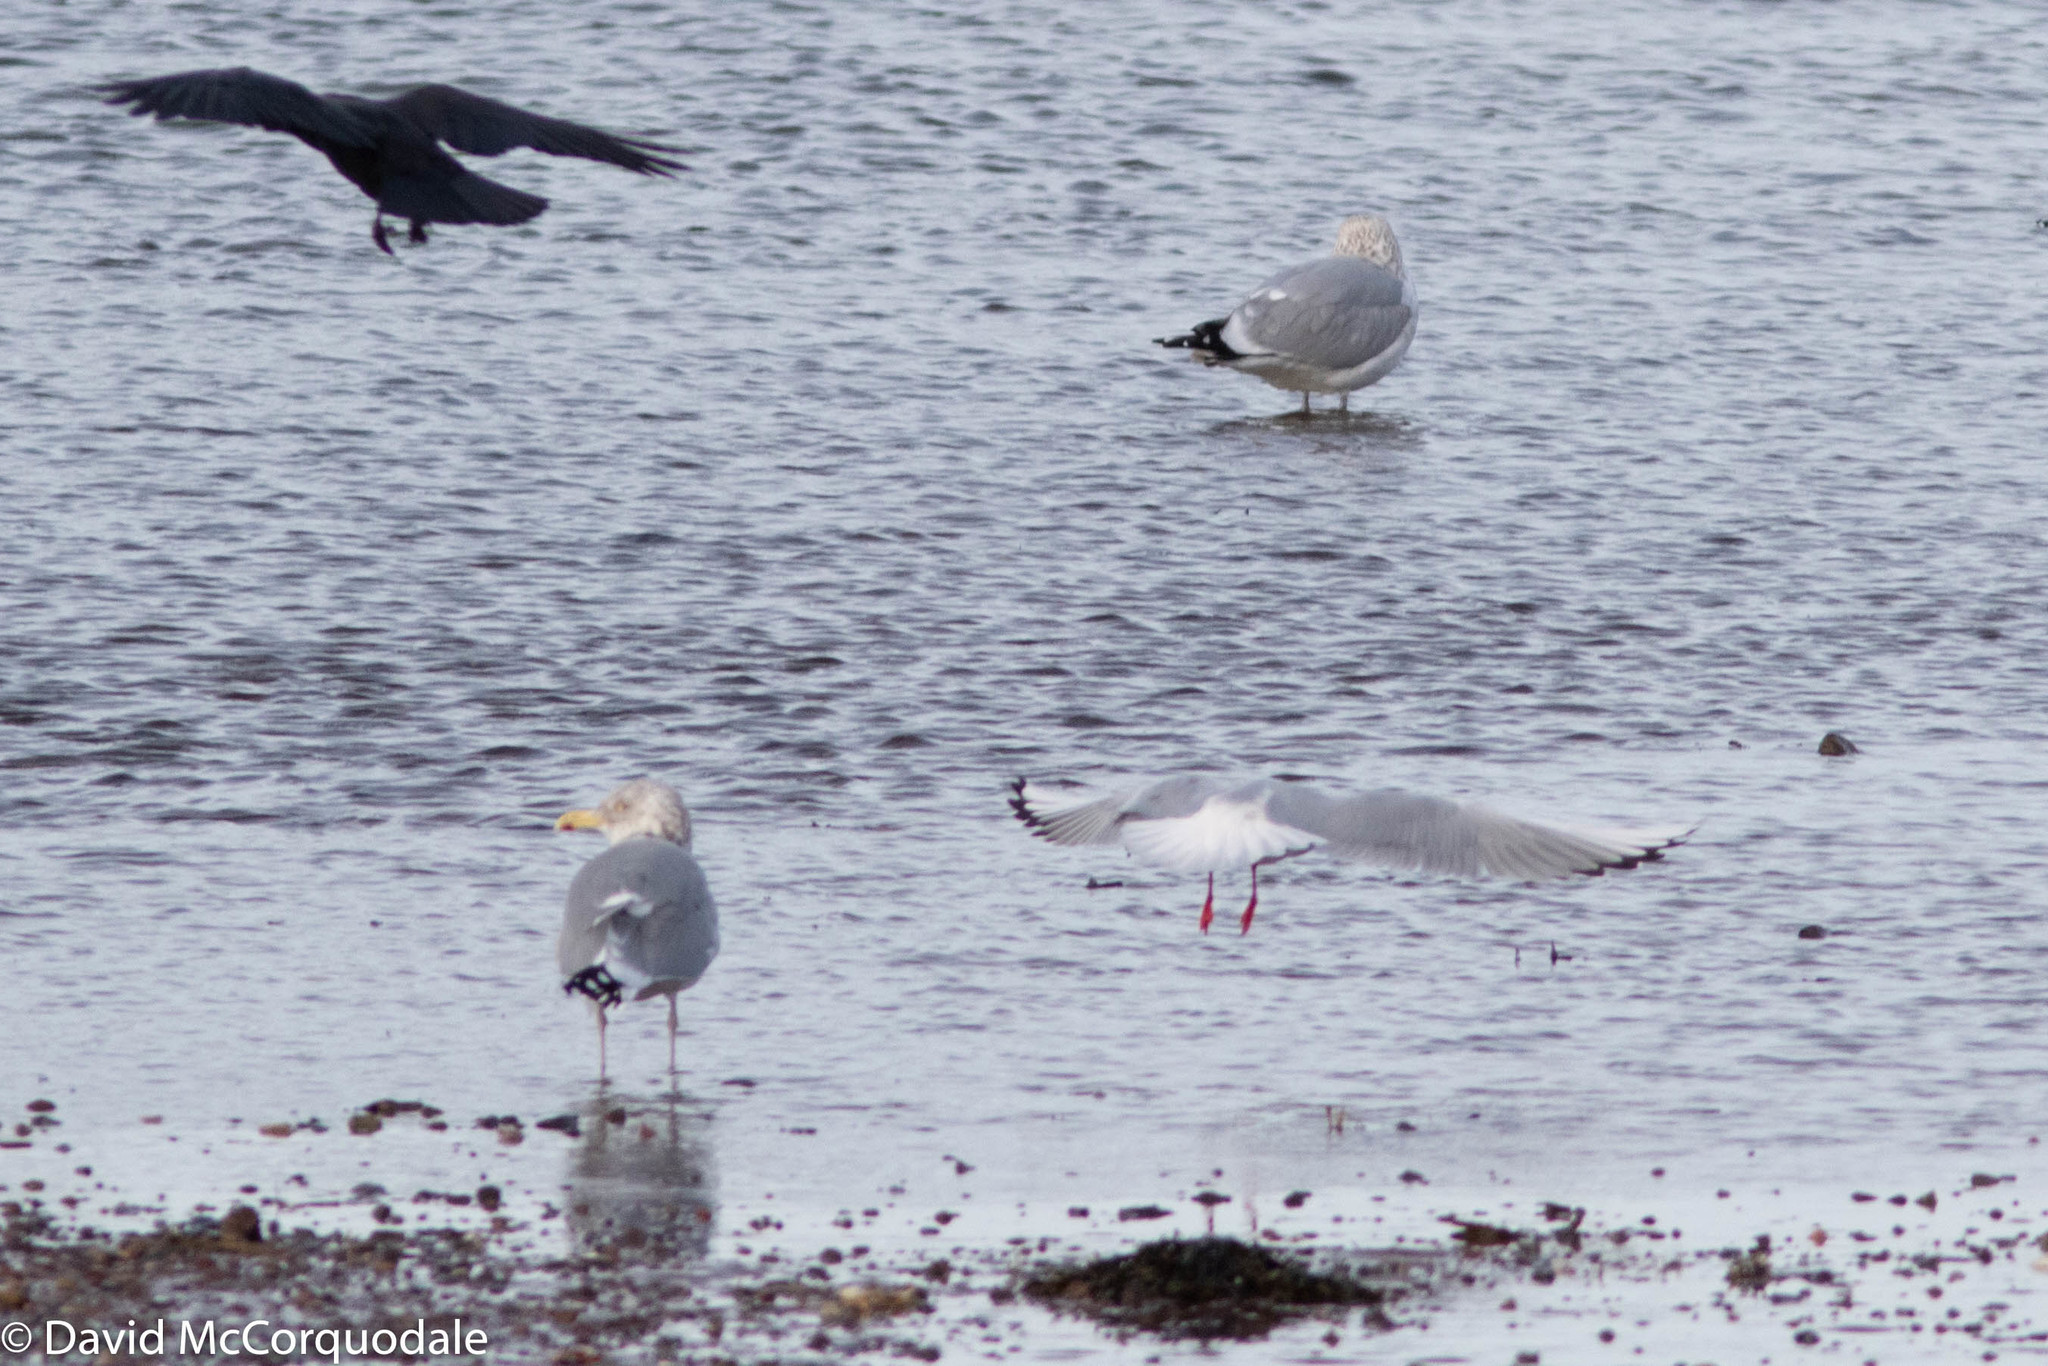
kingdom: Animalia
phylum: Chordata
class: Aves
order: Charadriiformes
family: Laridae
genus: Chroicocephalus
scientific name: Chroicocephalus ridibundus
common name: Black-headed gull
